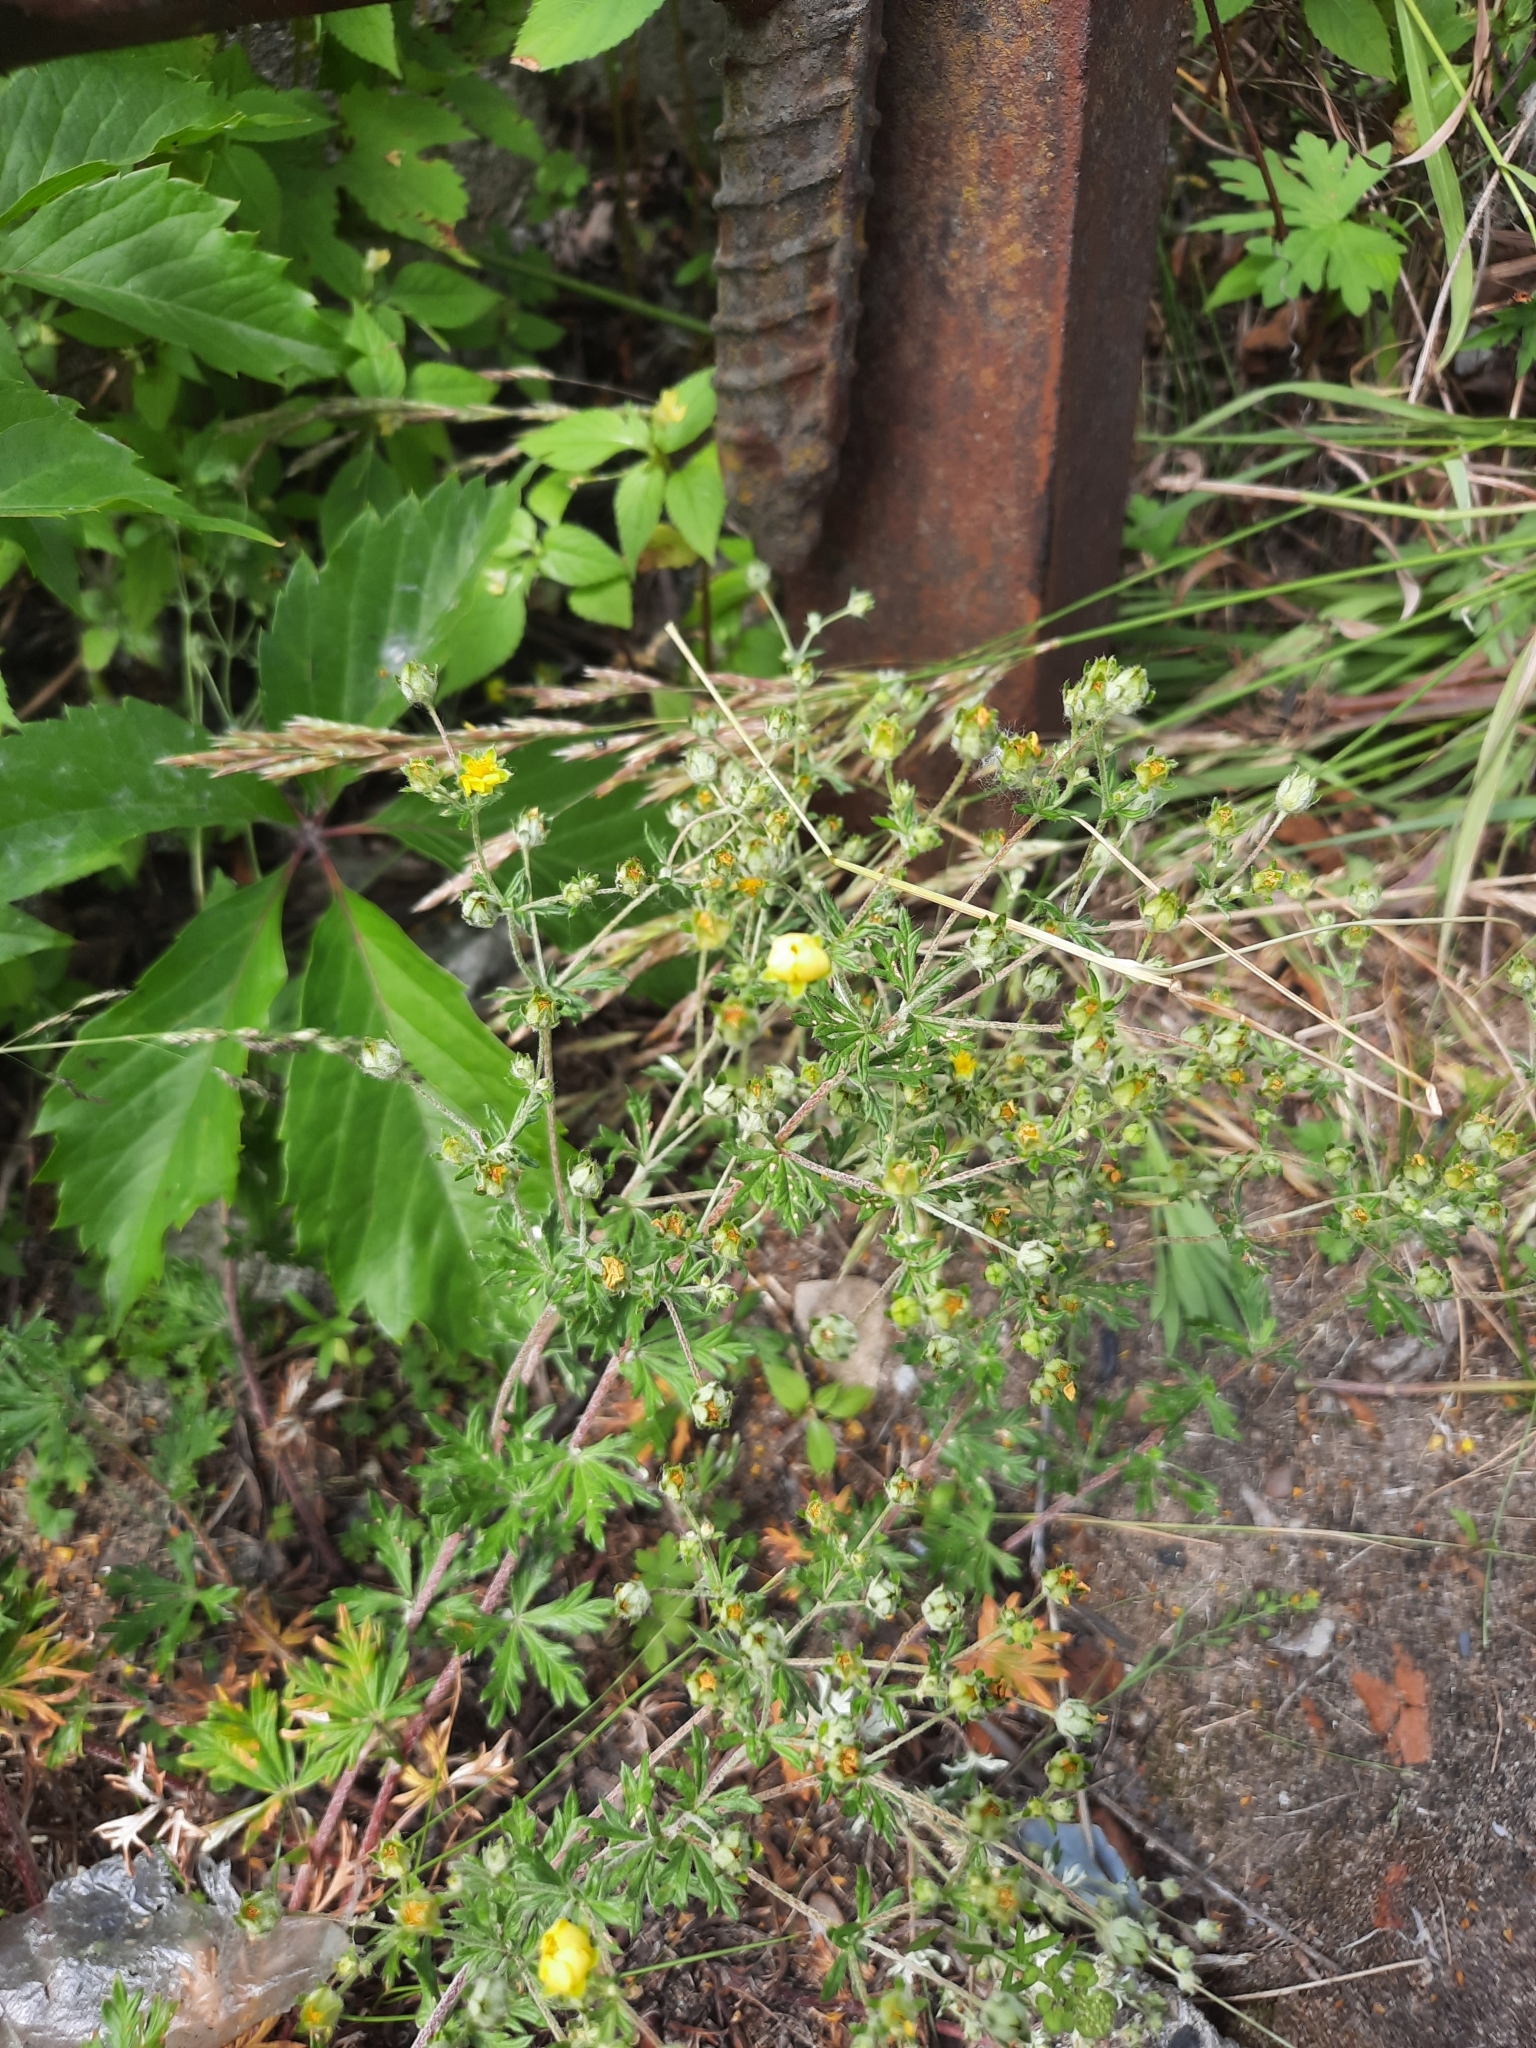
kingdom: Plantae
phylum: Tracheophyta
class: Magnoliopsida
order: Rosales
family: Rosaceae
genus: Potentilla
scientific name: Potentilla argentea
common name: Hoary cinquefoil
